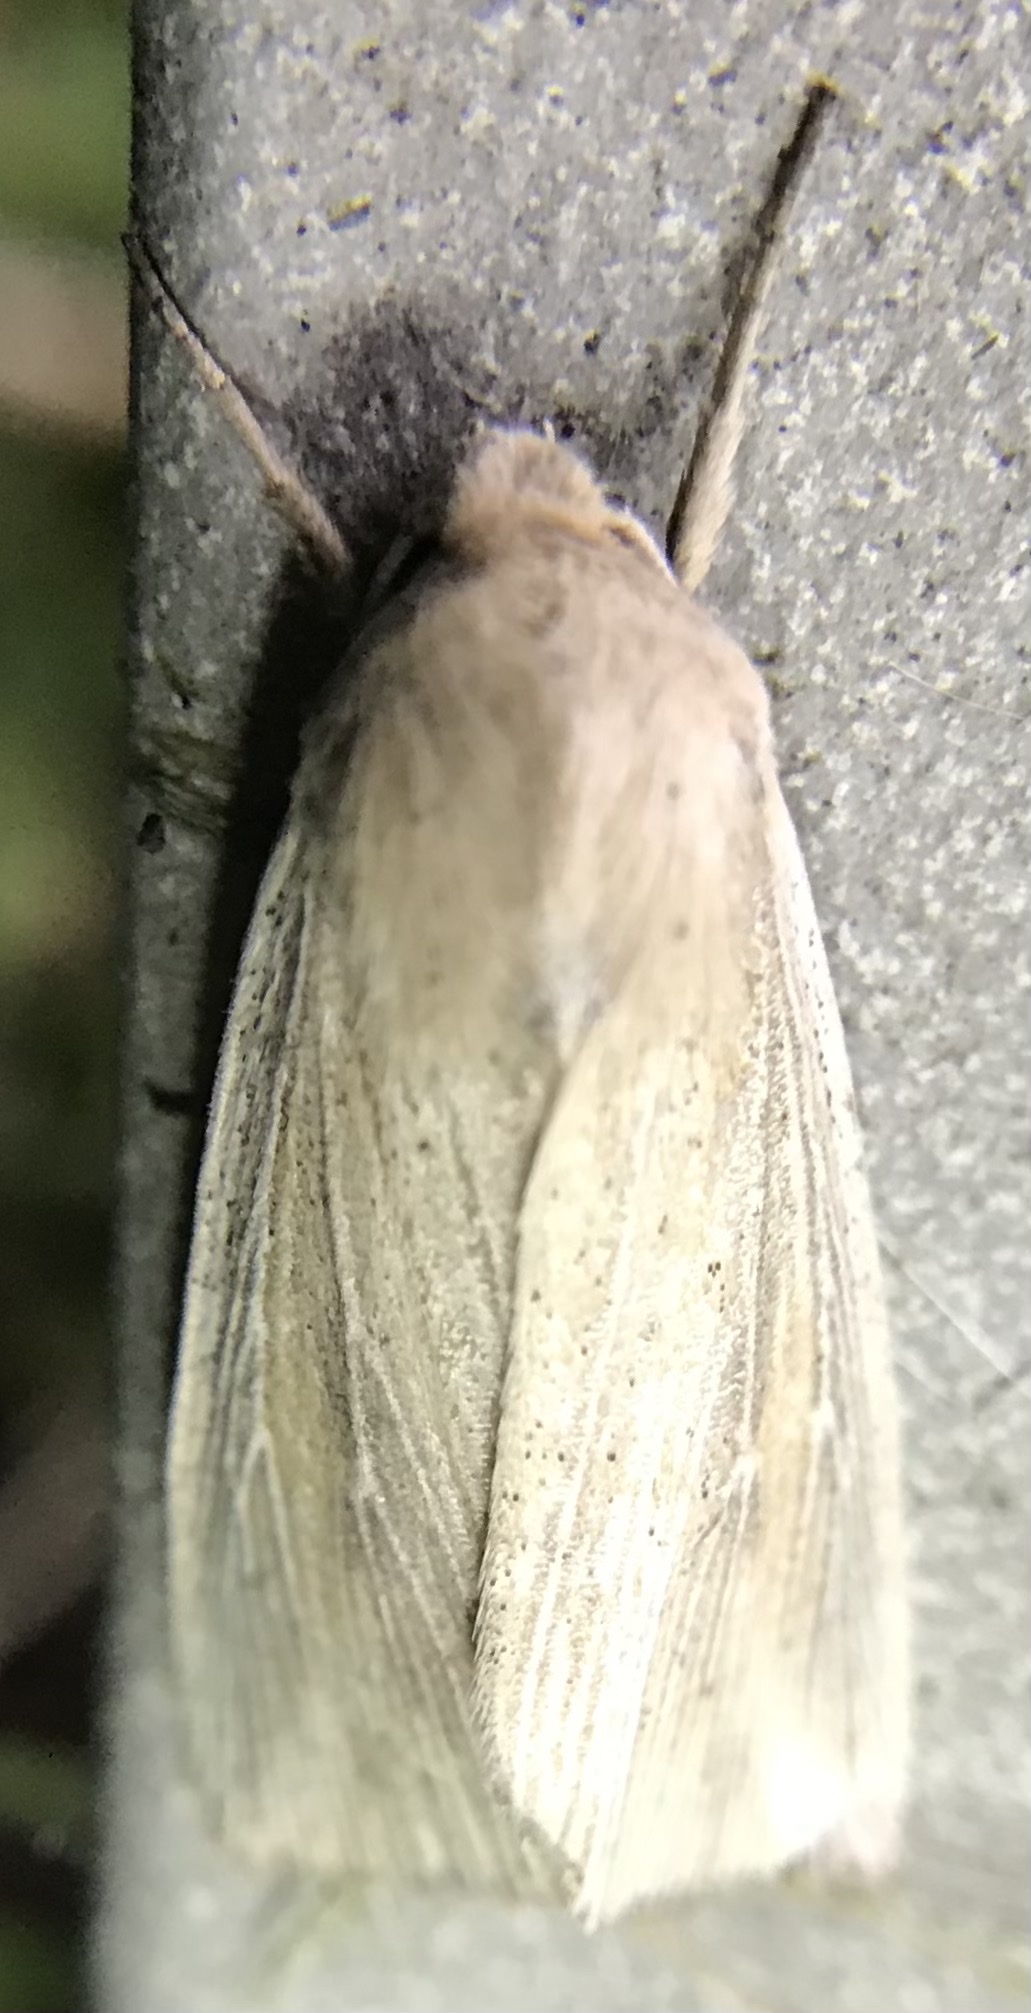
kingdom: Animalia
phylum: Arthropoda
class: Insecta
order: Lepidoptera
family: Noctuidae
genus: Leucania
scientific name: Leucania linita
